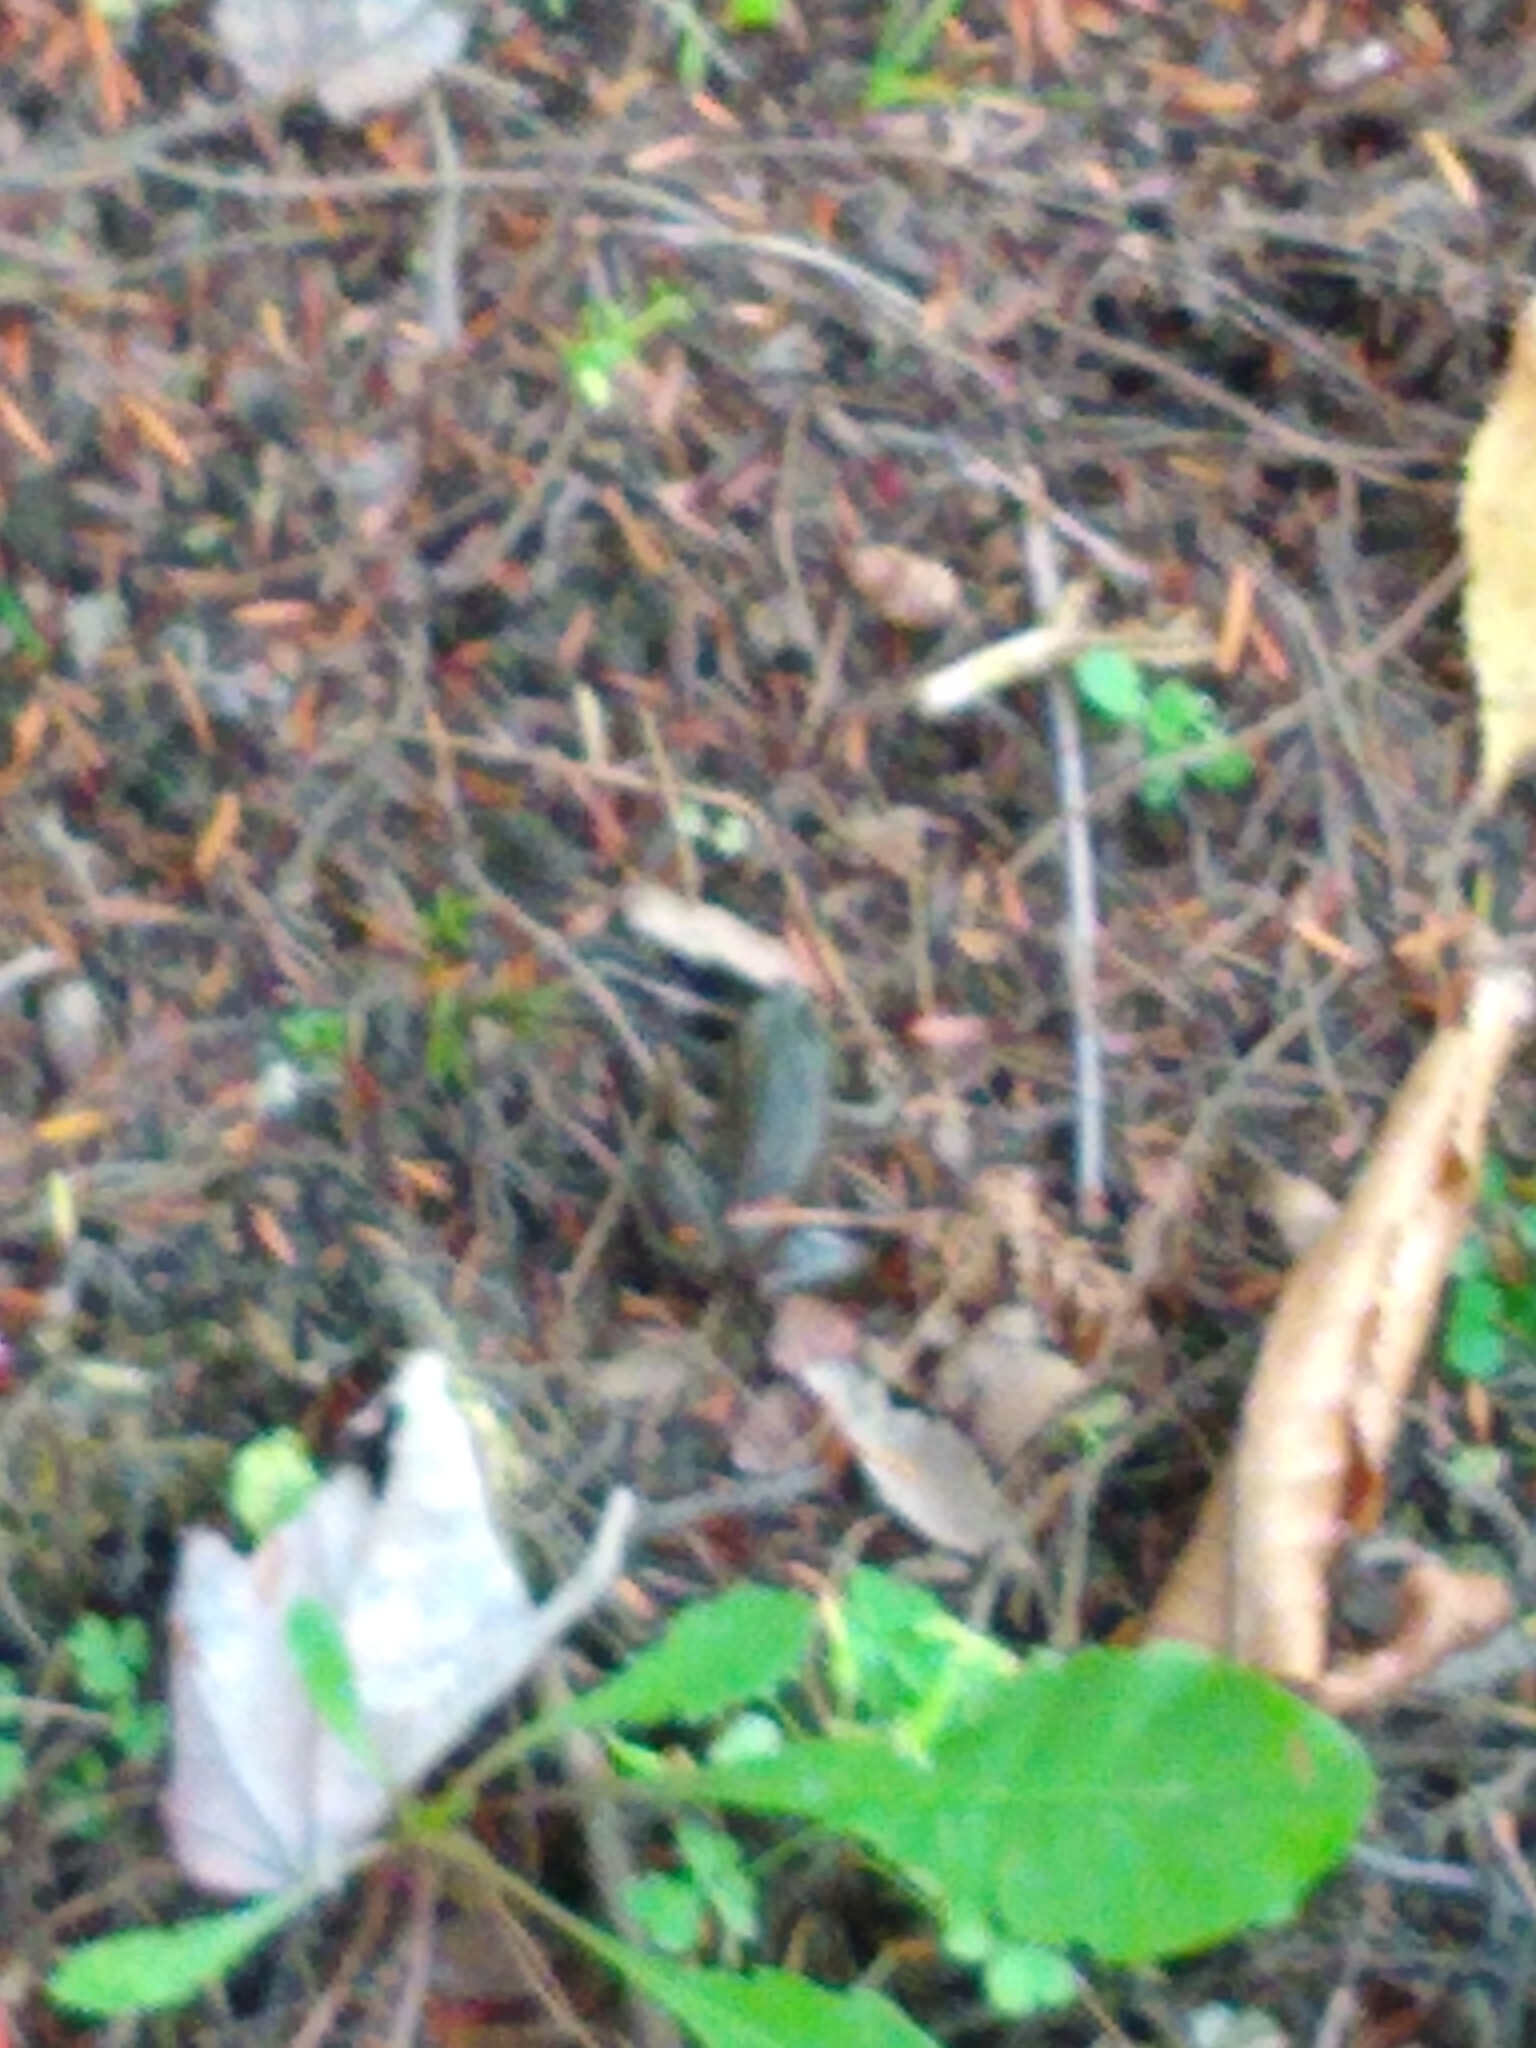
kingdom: Animalia
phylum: Chordata
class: Amphibia
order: Anura
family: Ranidae
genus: Lithobates
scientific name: Lithobates clamitans
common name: Green frog
